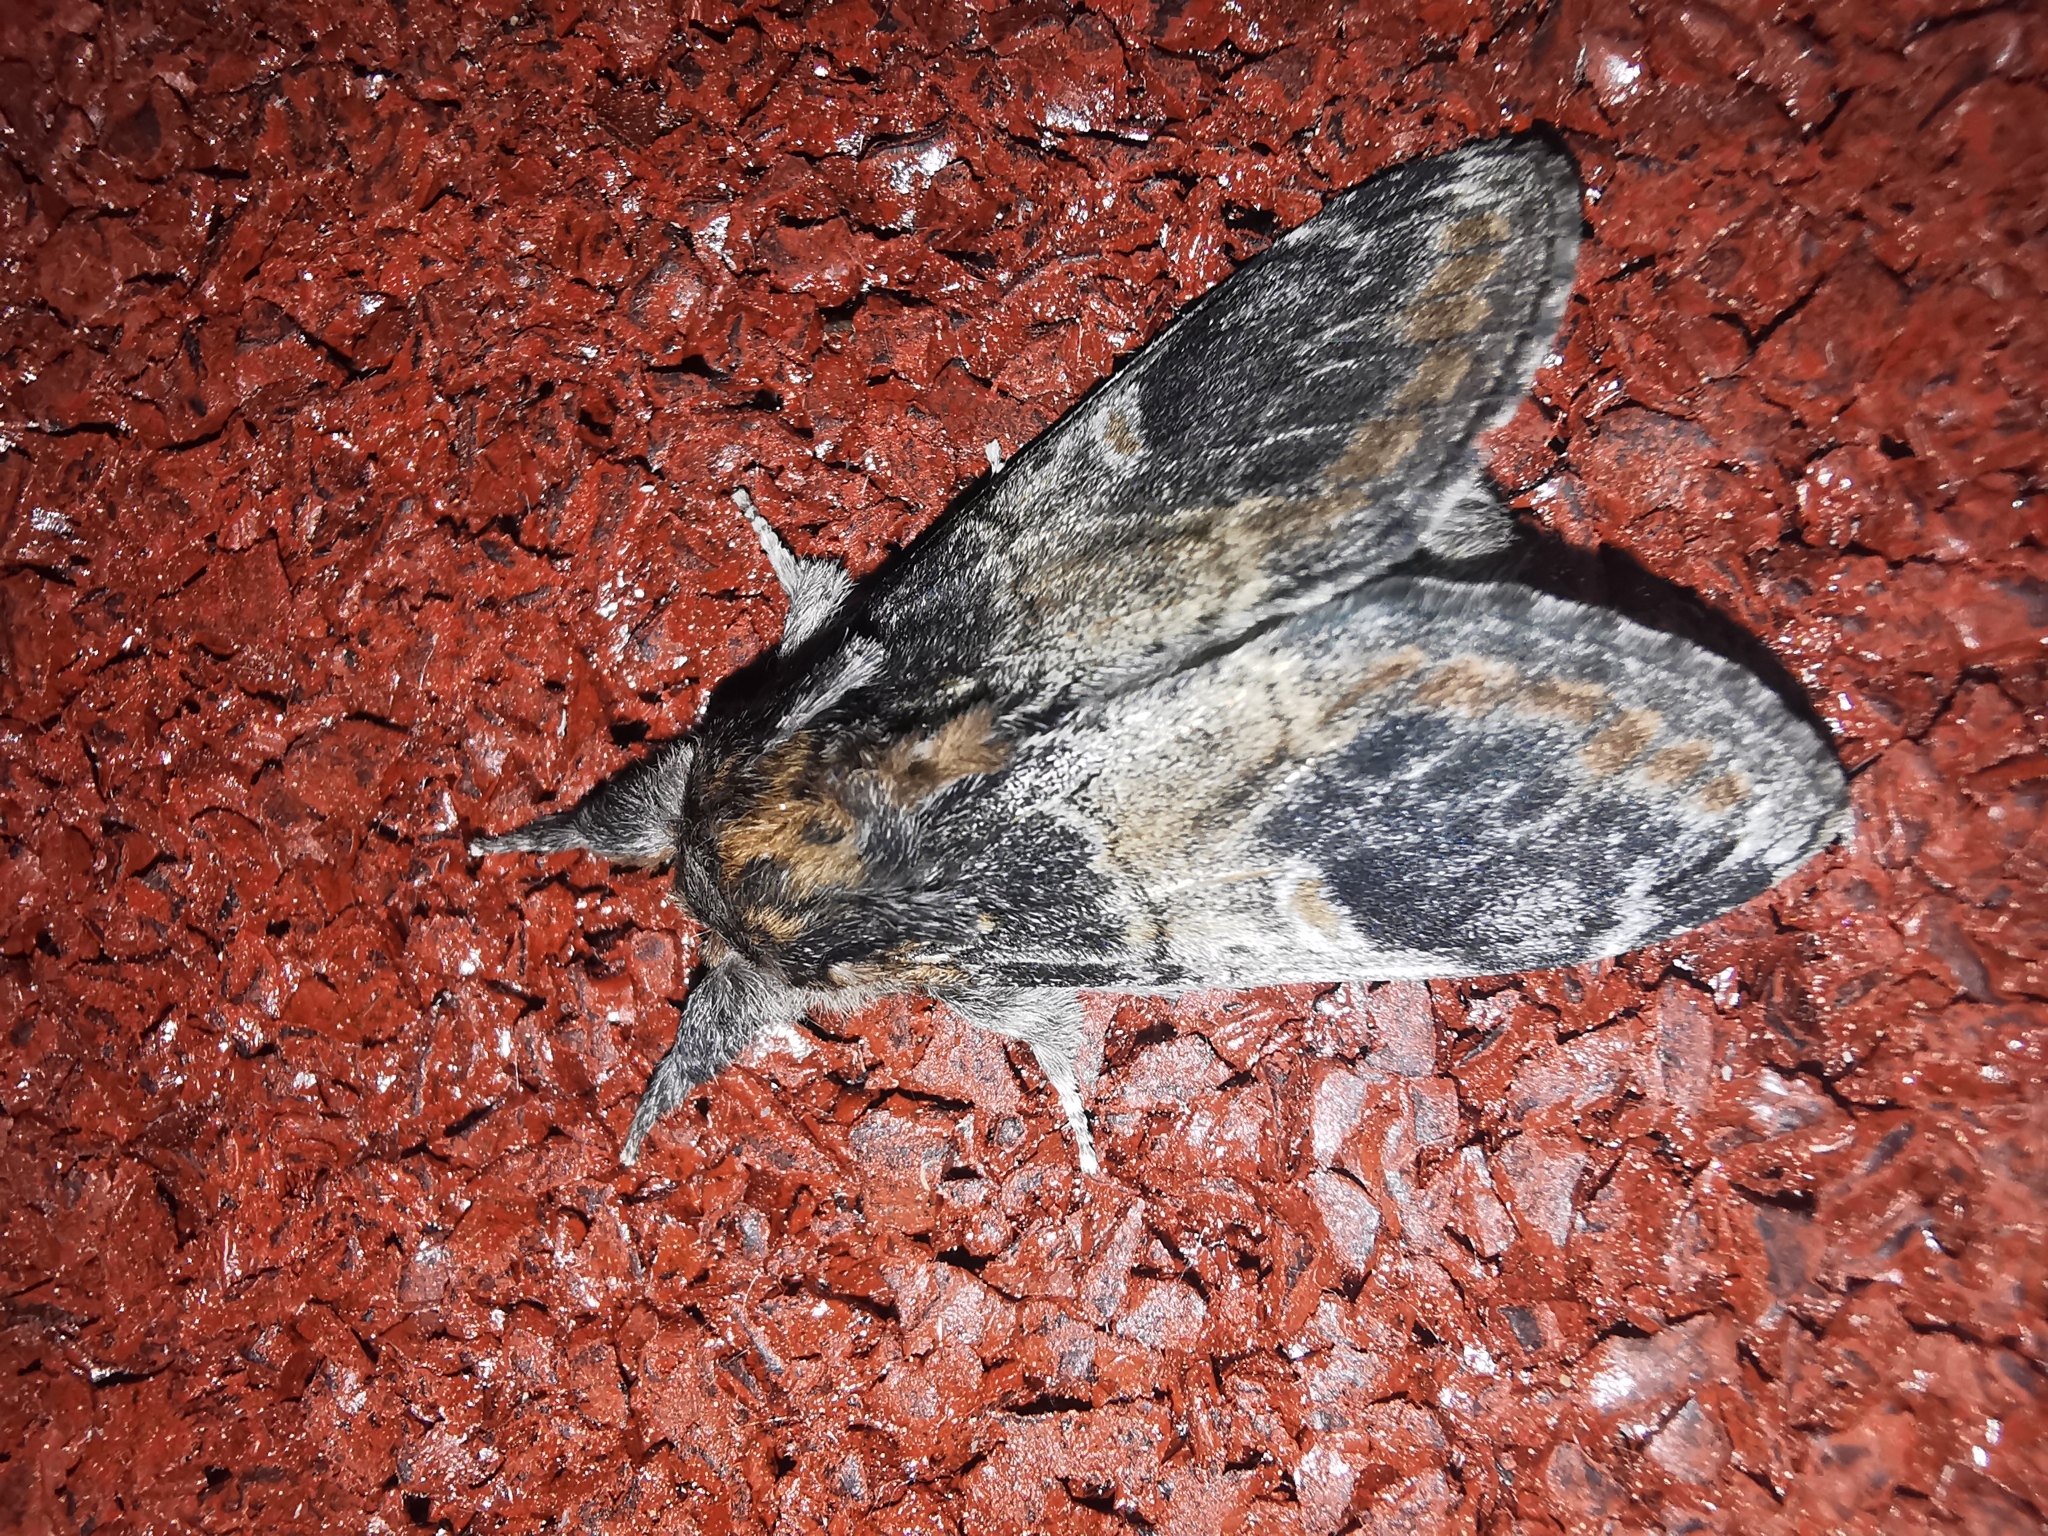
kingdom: Animalia
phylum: Arthropoda
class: Insecta
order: Lepidoptera
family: Notodontidae
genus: Notodonta
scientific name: Notodonta tritophus
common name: Three-humped prominent
